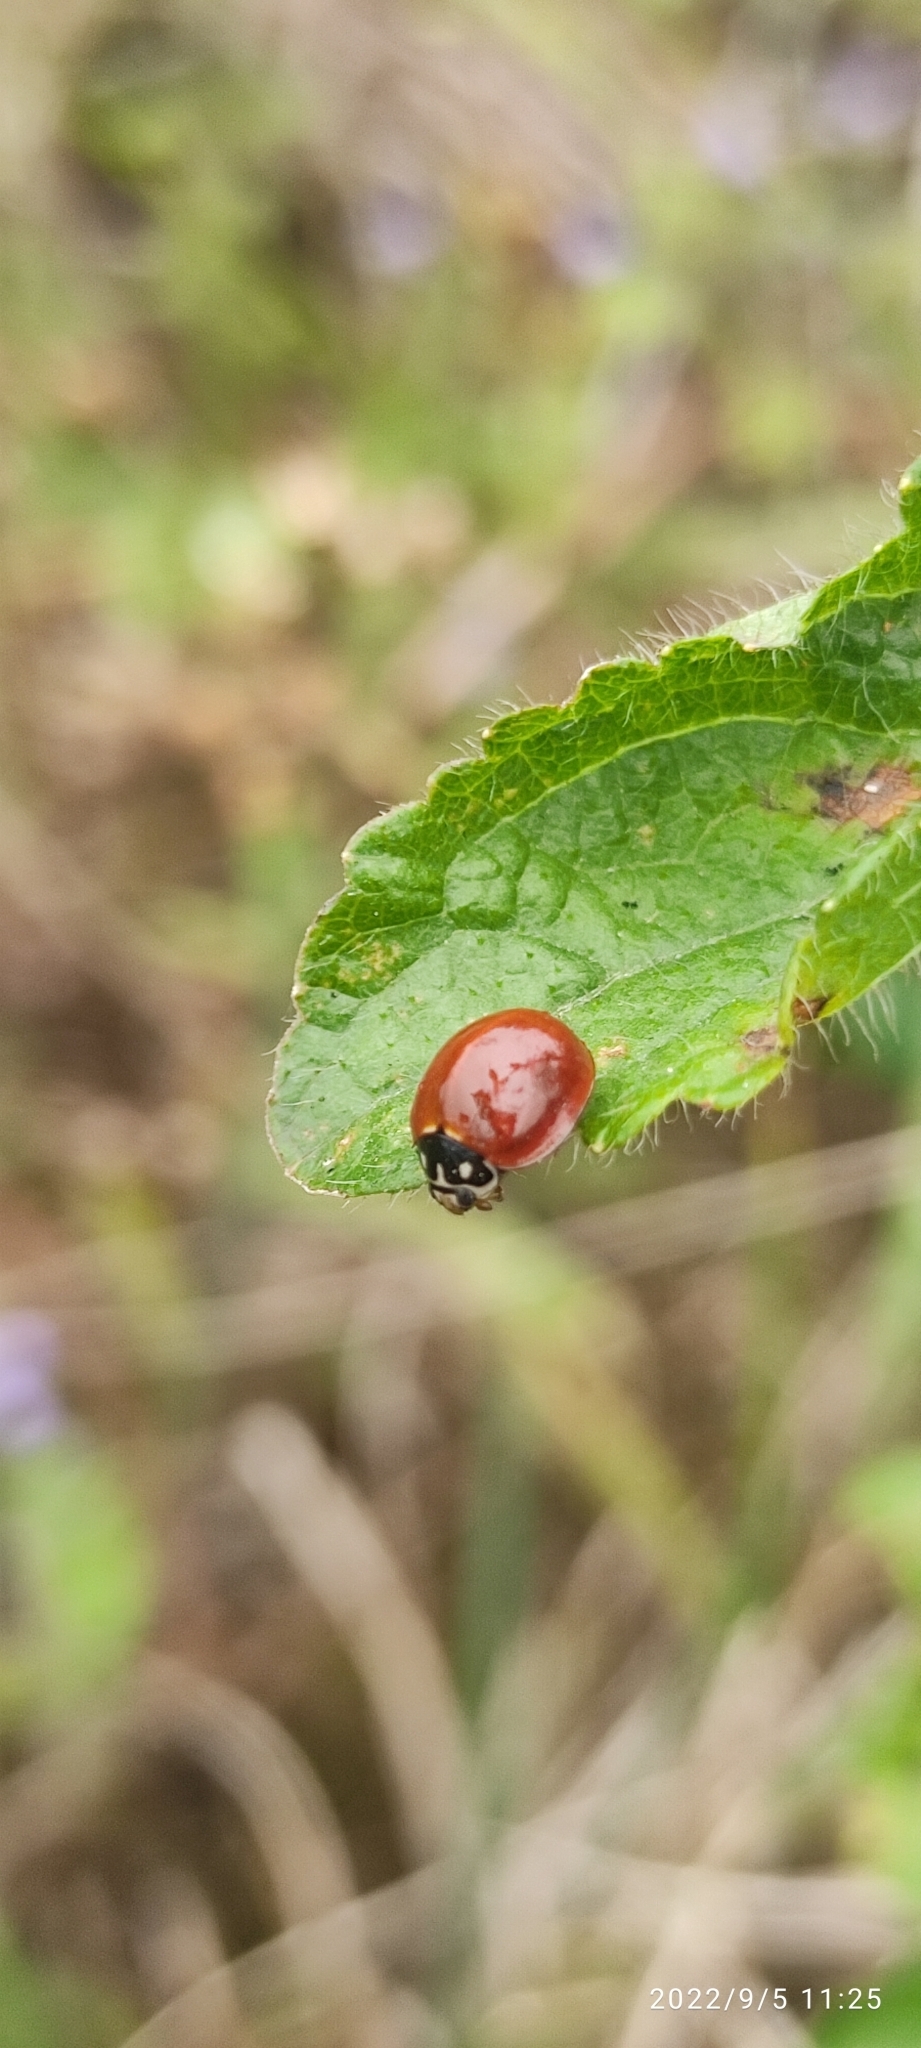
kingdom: Animalia
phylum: Arthropoda
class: Insecta
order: Coleoptera
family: Coccinellidae
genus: Cycloneda
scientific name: Cycloneda sanguinea
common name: Ladybird beetle
